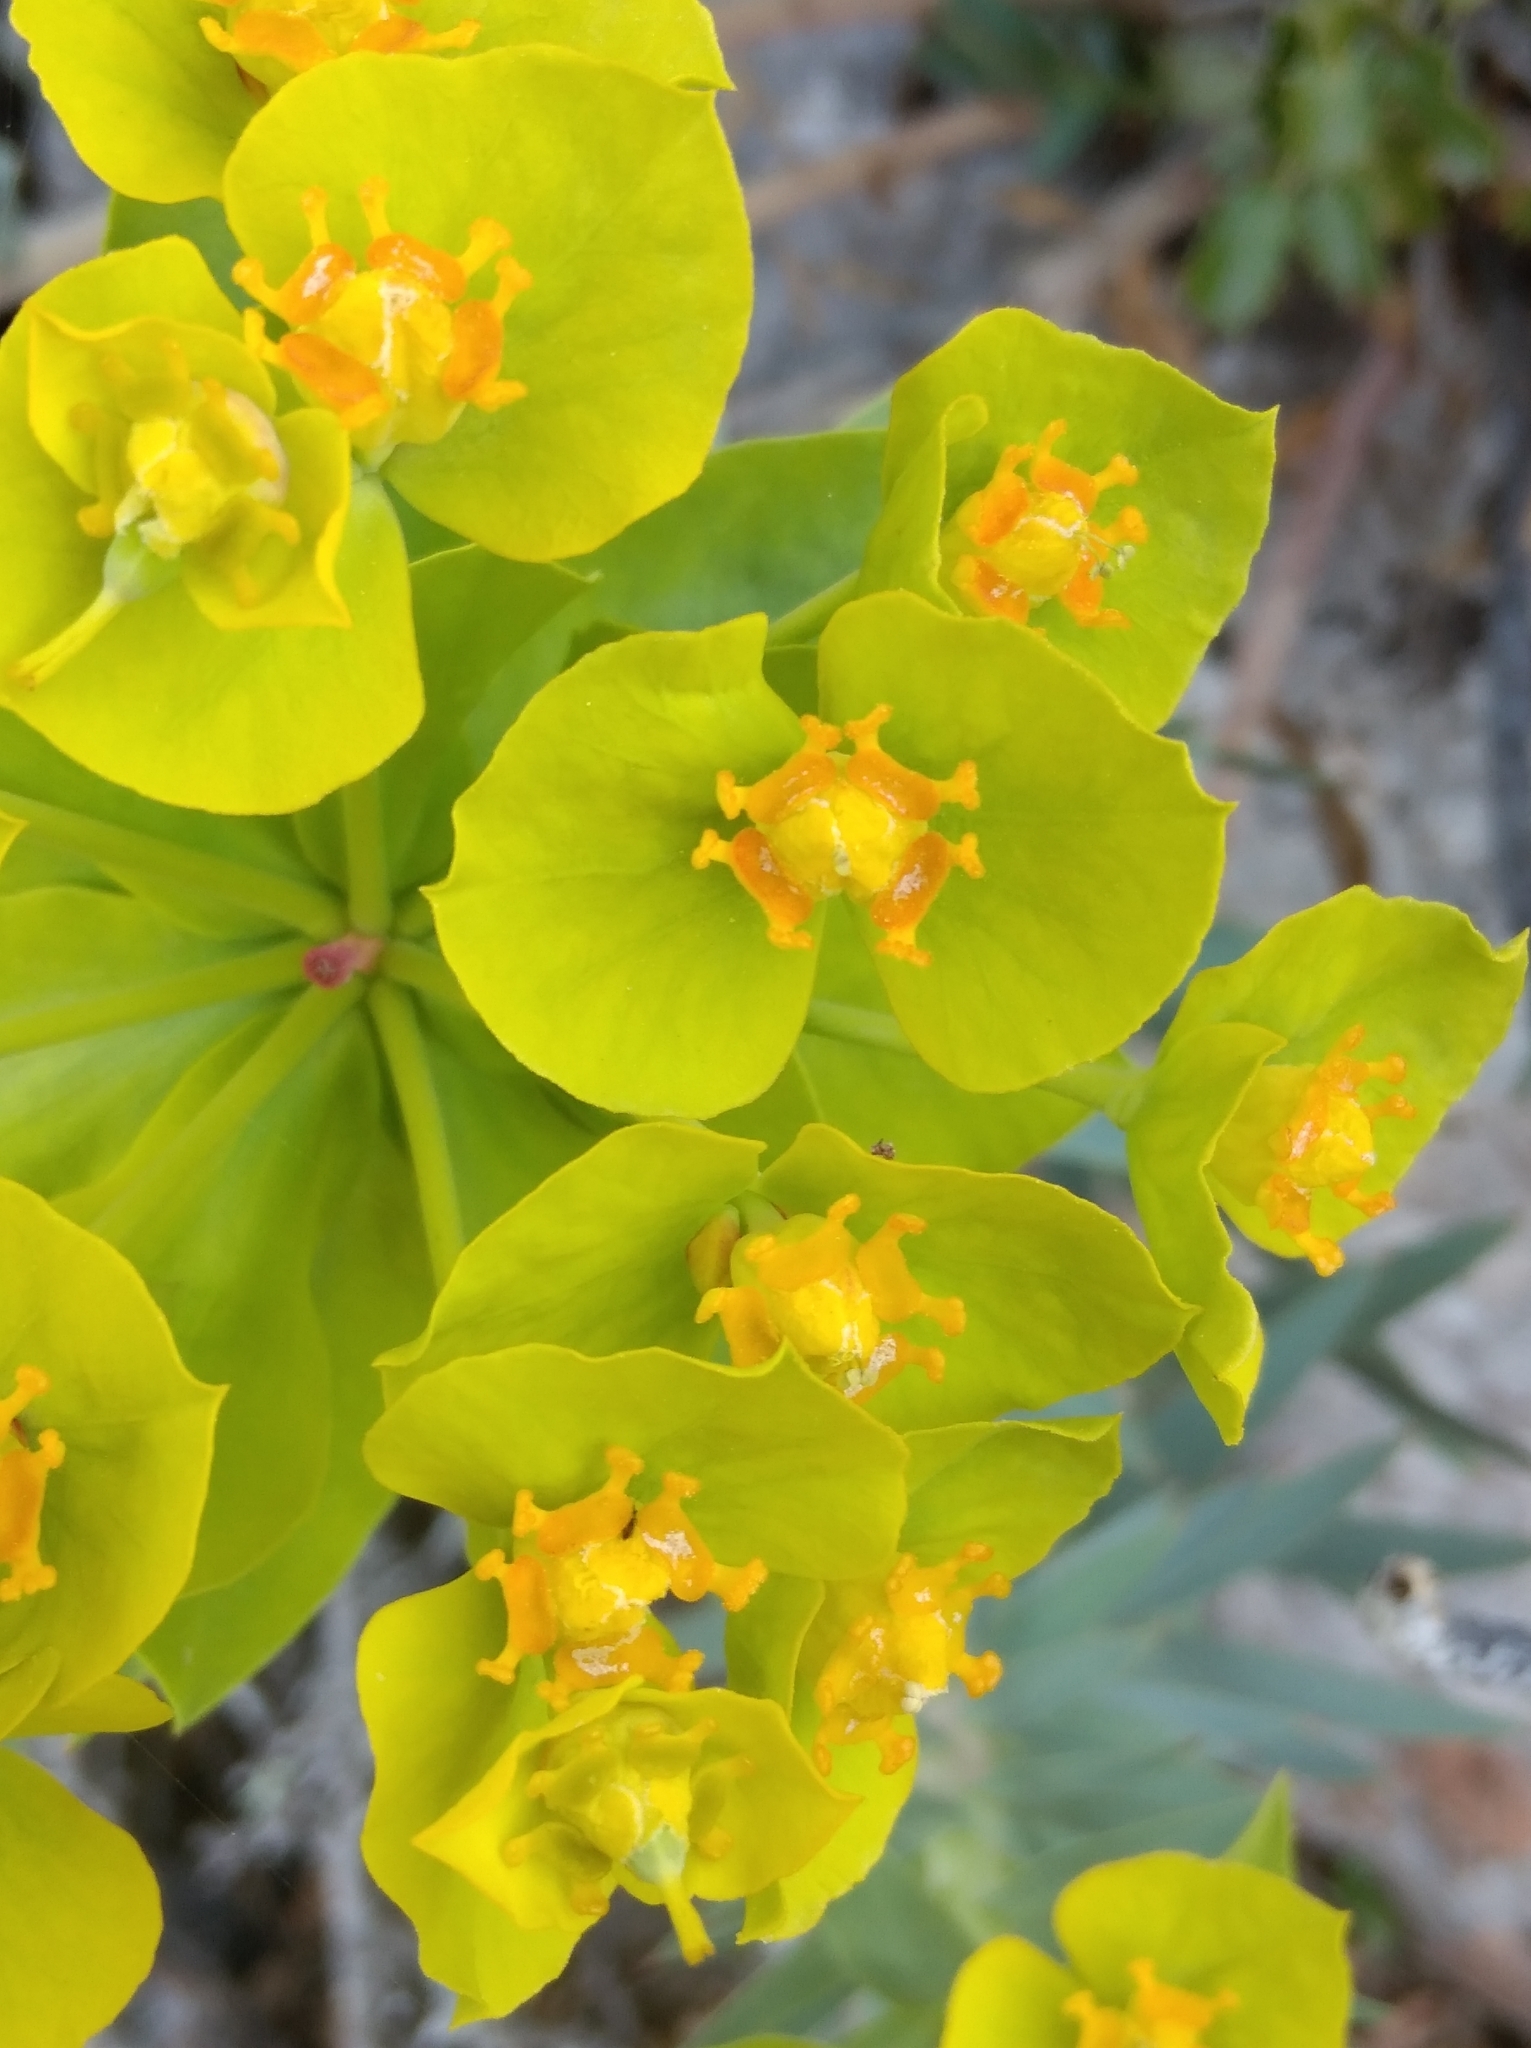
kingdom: Plantae
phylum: Tracheophyta
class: Magnoliopsida
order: Malpighiales
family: Euphorbiaceae
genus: Euphorbia
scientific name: Euphorbia rigida
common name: Upright myrtle spurge
